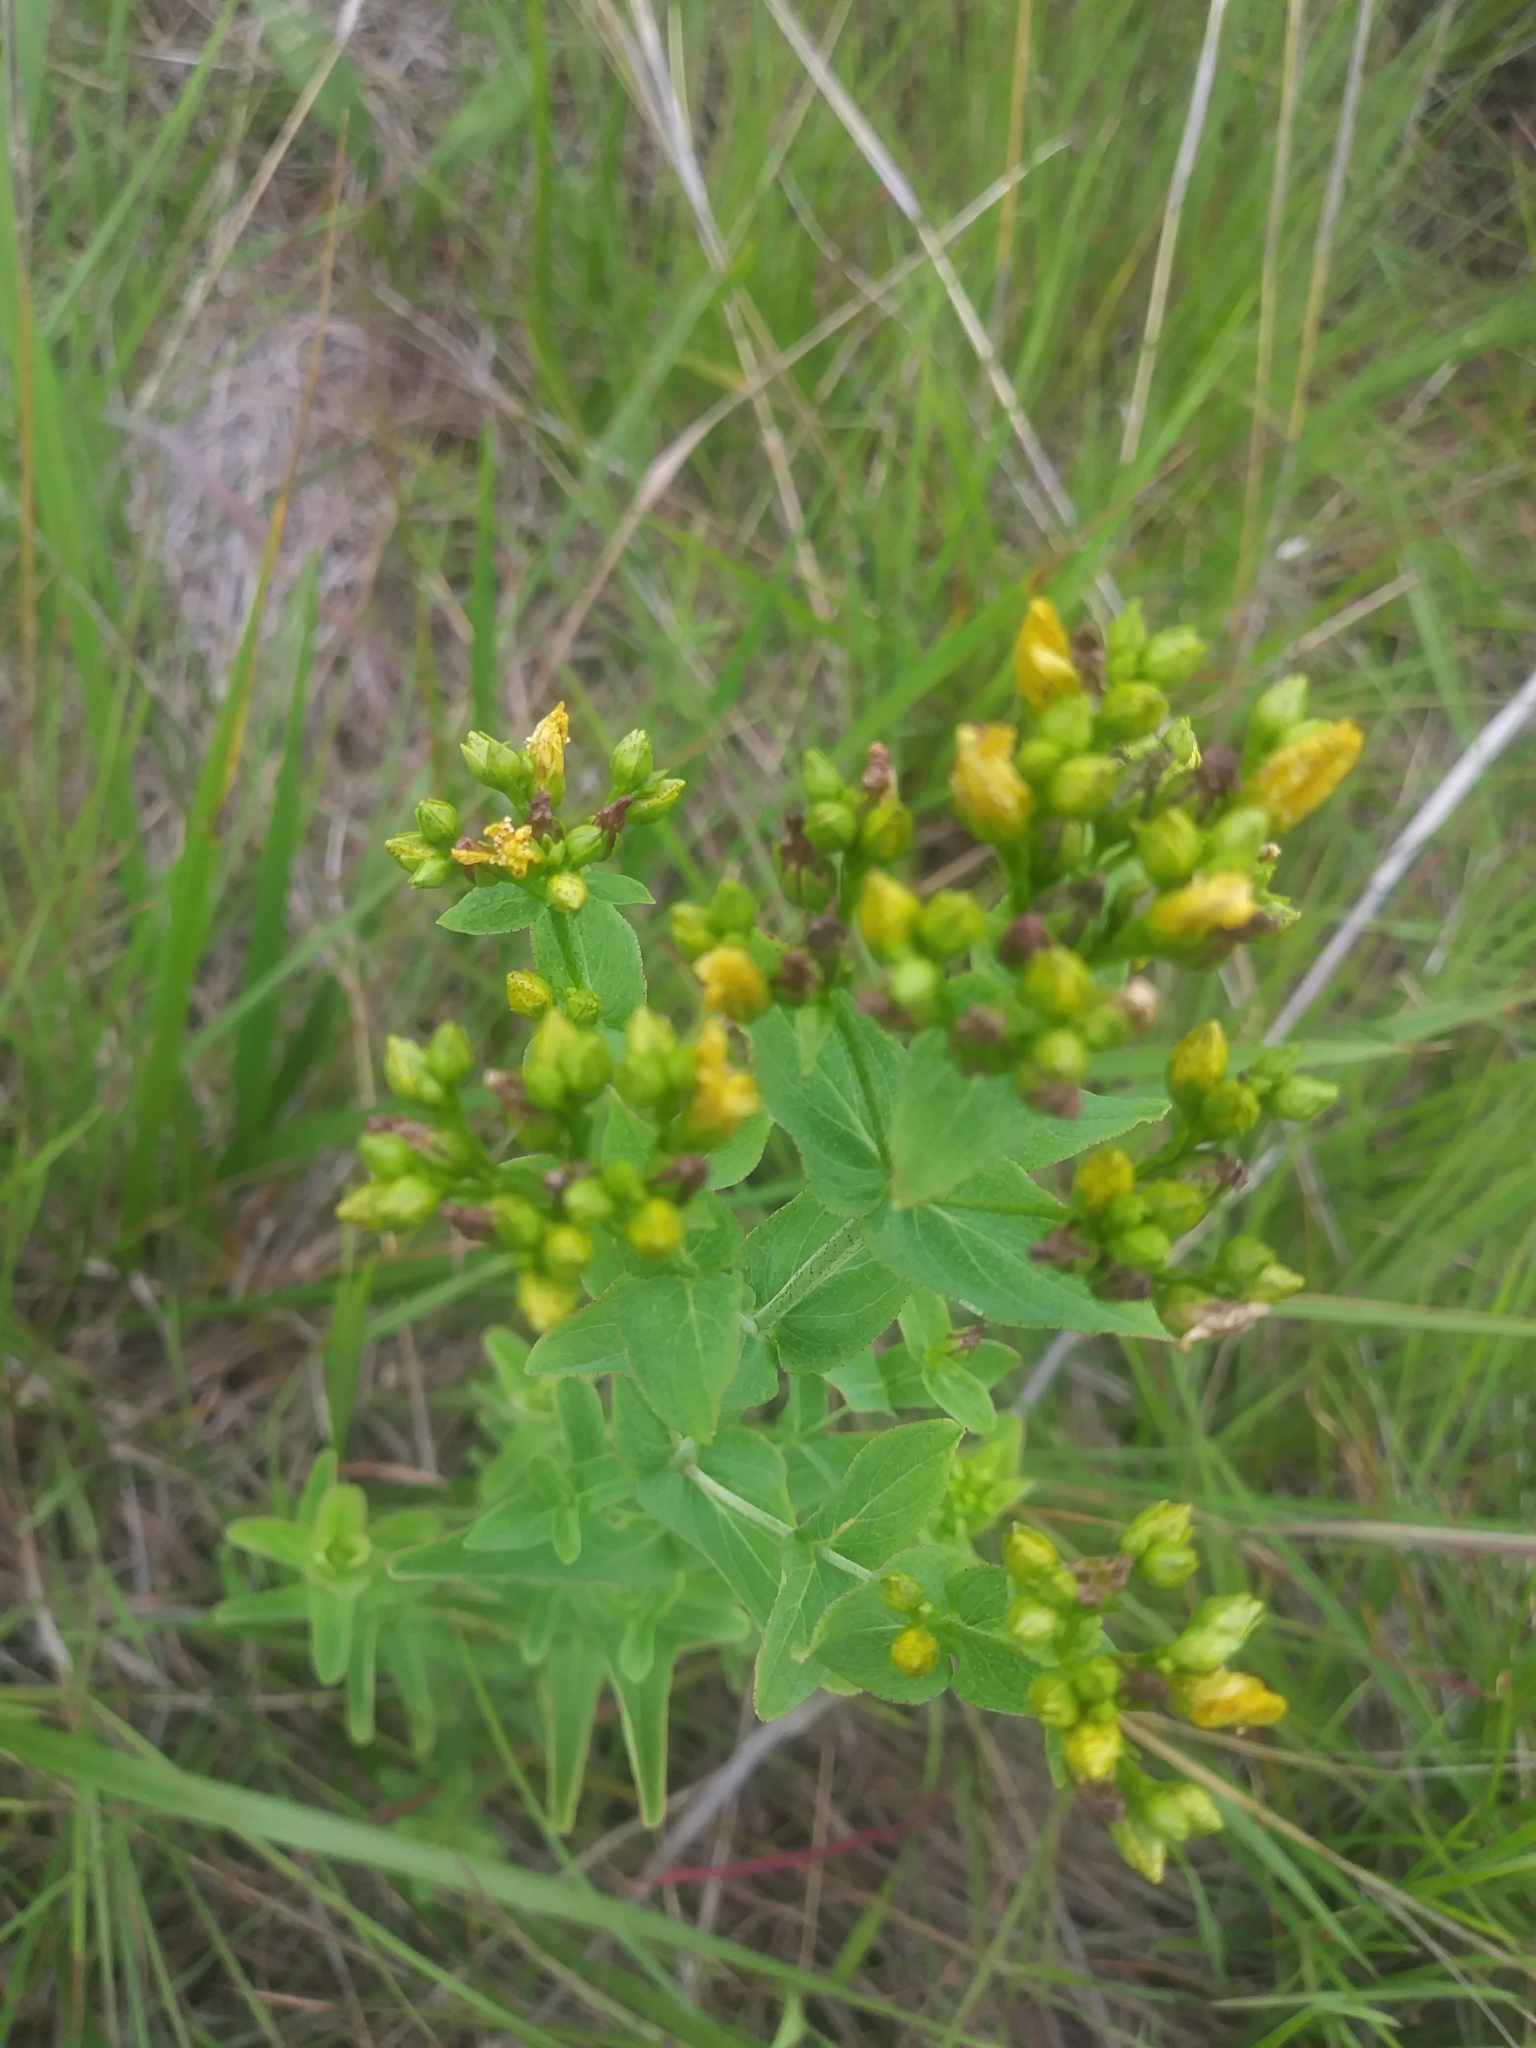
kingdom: Plantae
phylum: Tracheophyta
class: Magnoliopsida
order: Malpighiales
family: Hypericaceae
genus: Hypericum
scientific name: Hypericum punctatum
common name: Spotted st. john's-wort
